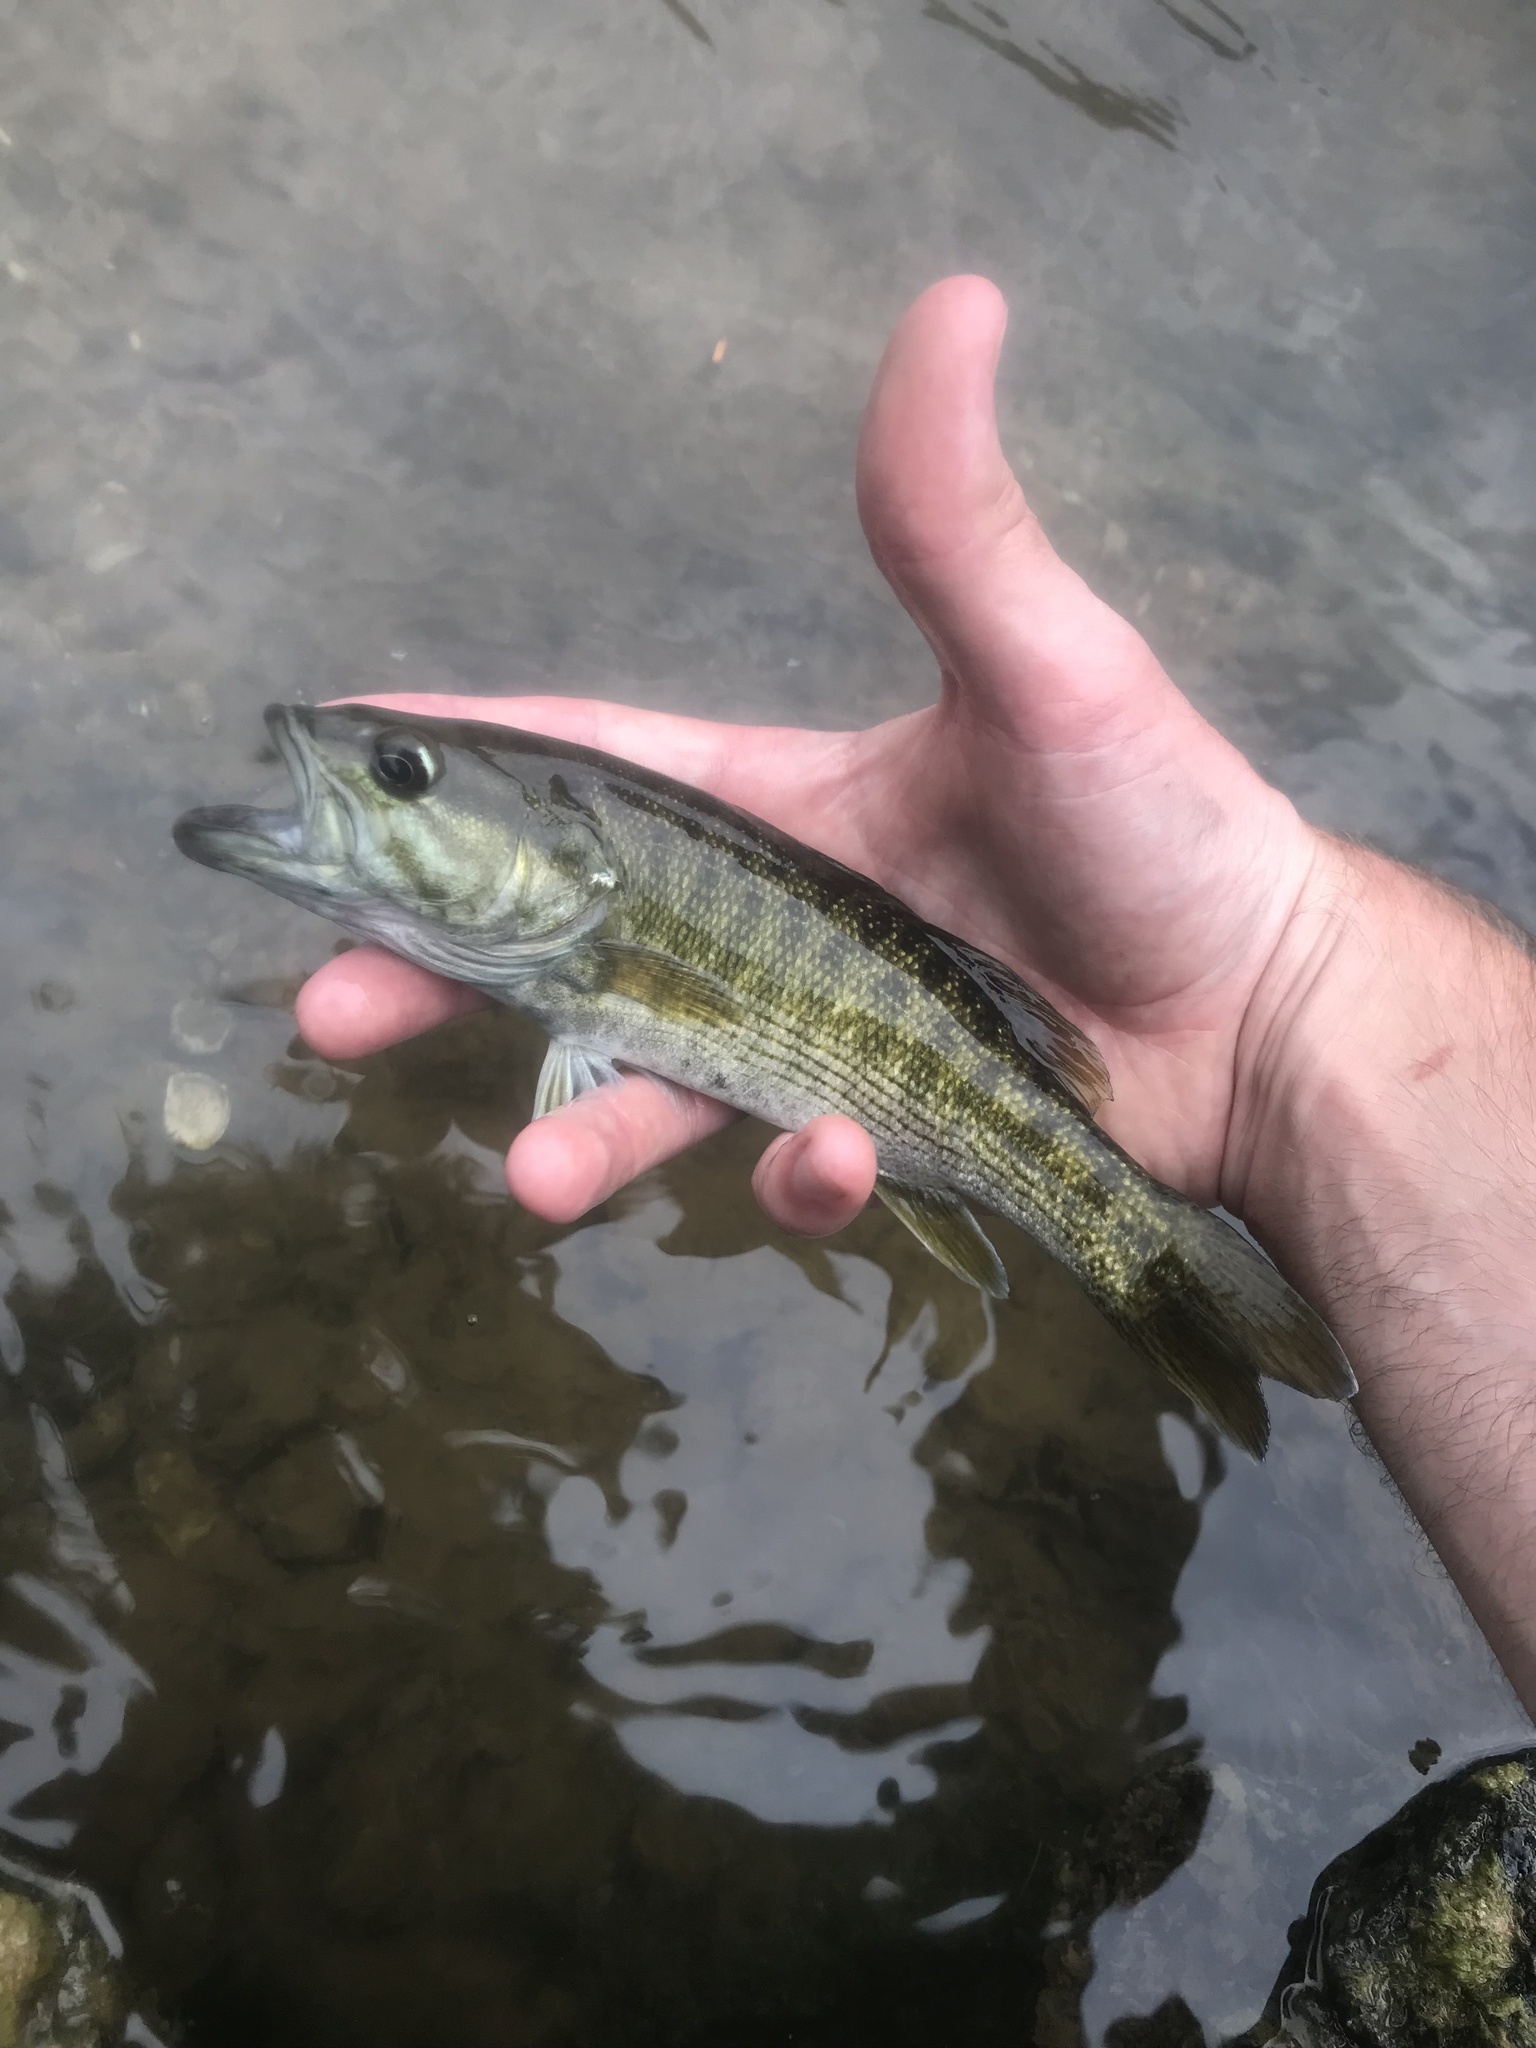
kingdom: Animalia
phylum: Chordata
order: Perciformes
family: Centrarchidae
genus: Micropterus
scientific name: Micropterus cahabae
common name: Cahaba bass
